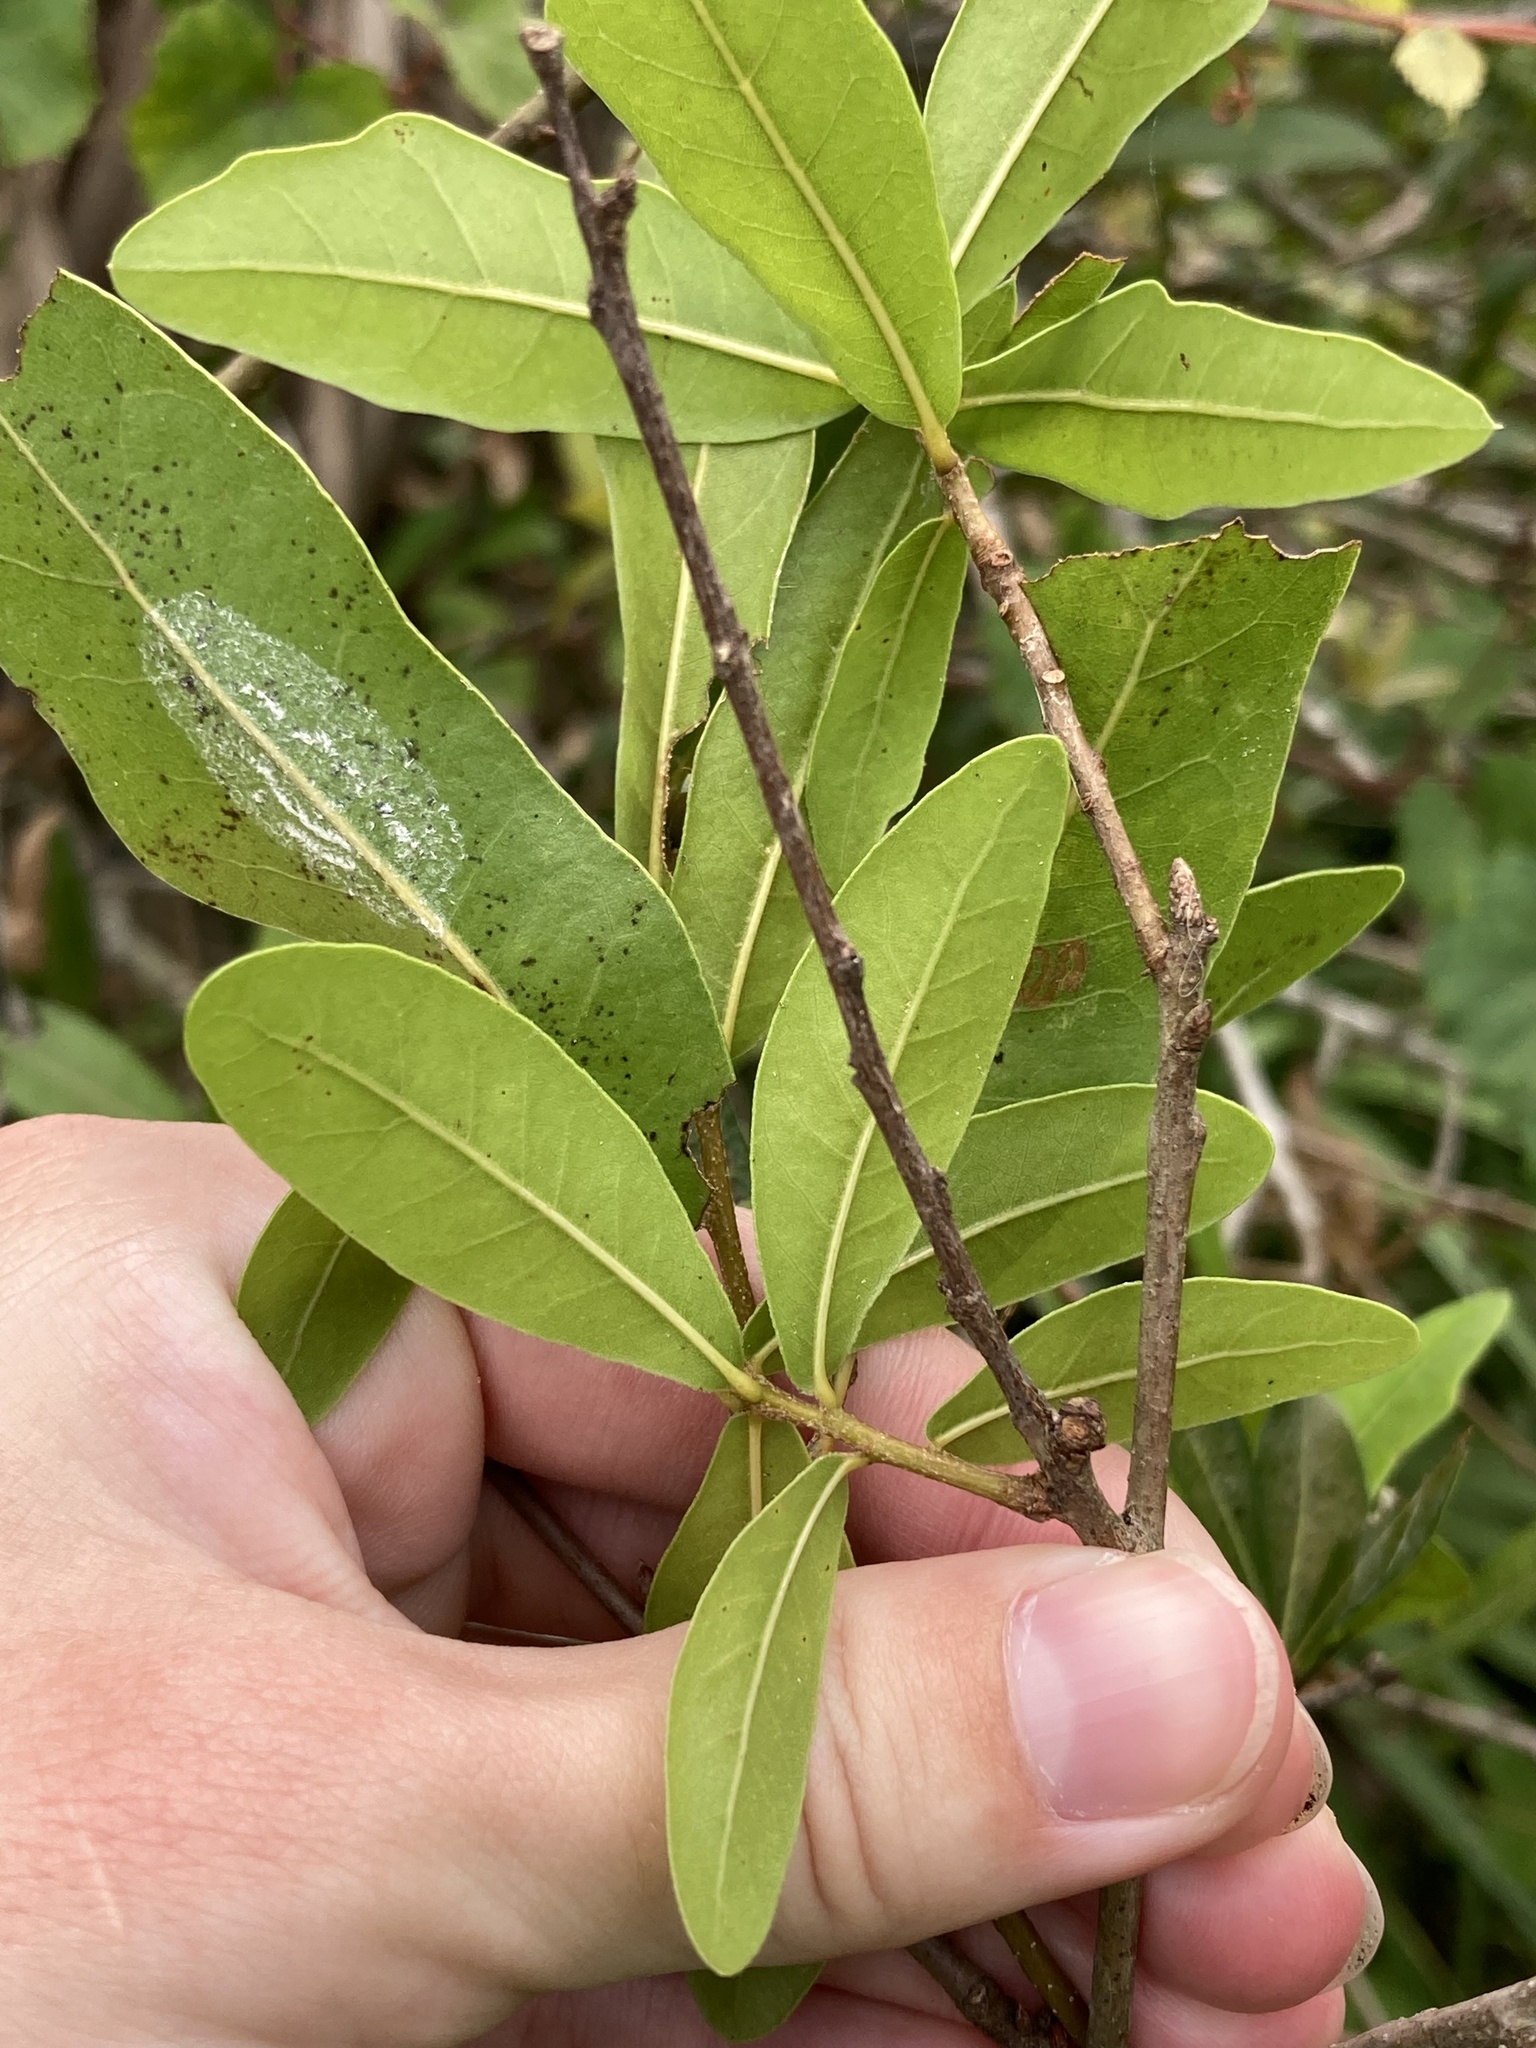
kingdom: Plantae
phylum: Tracheophyta
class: Magnoliopsida
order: Fagales
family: Fagaceae
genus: Quercus
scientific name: Quercus laurifolia
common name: Swamp laurel oak
